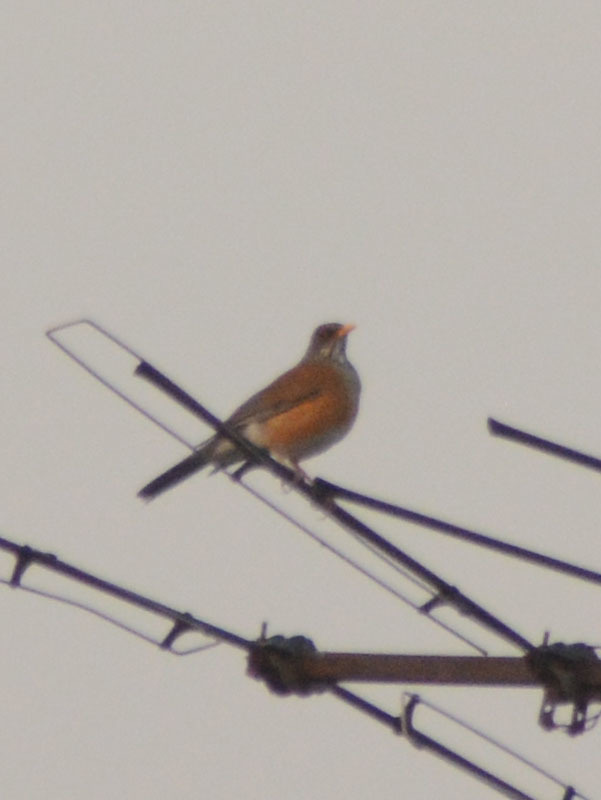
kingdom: Animalia
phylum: Chordata
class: Aves
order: Passeriformes
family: Turdidae
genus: Turdus
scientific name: Turdus rufopalliatus
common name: Rufous-backed robin
